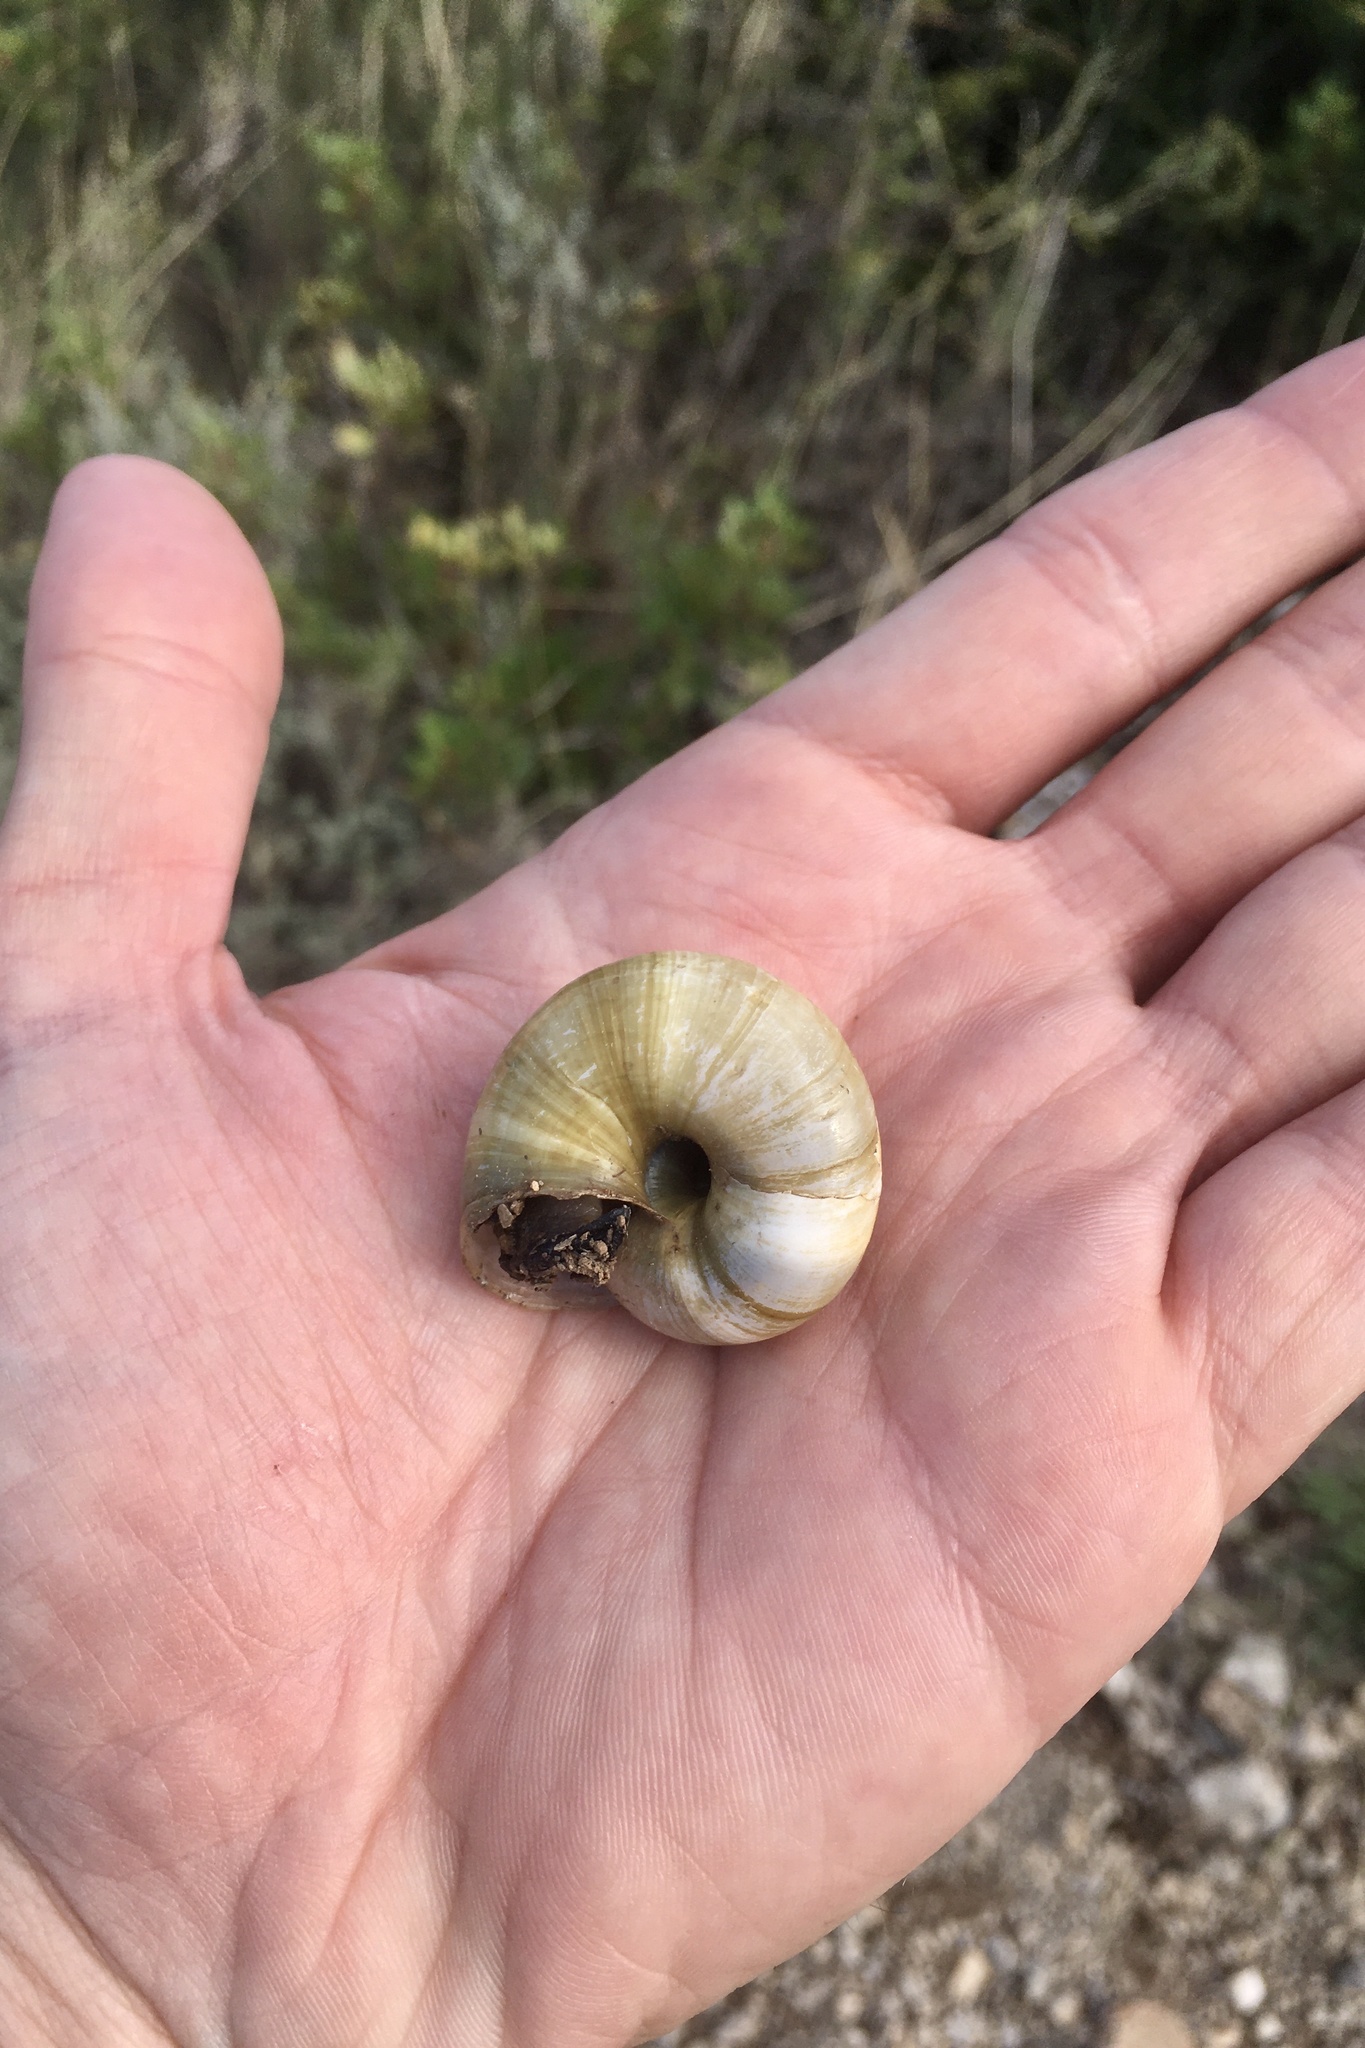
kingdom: Animalia
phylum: Mollusca
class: Gastropoda
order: Stylommatophora
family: Zonitidae
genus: Zonites
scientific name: Zonites algirus
